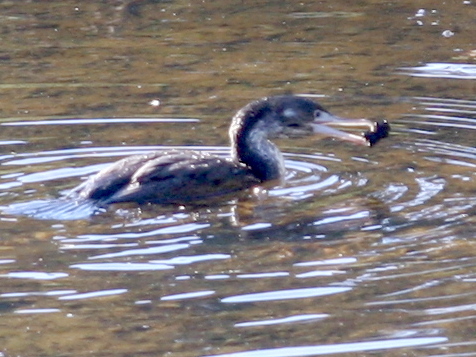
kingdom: Animalia
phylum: Chordata
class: Aves
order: Suliformes
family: Phalacrocoracidae
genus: Phalacrocorax
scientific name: Phalacrocorax varius
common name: Pied cormorant
